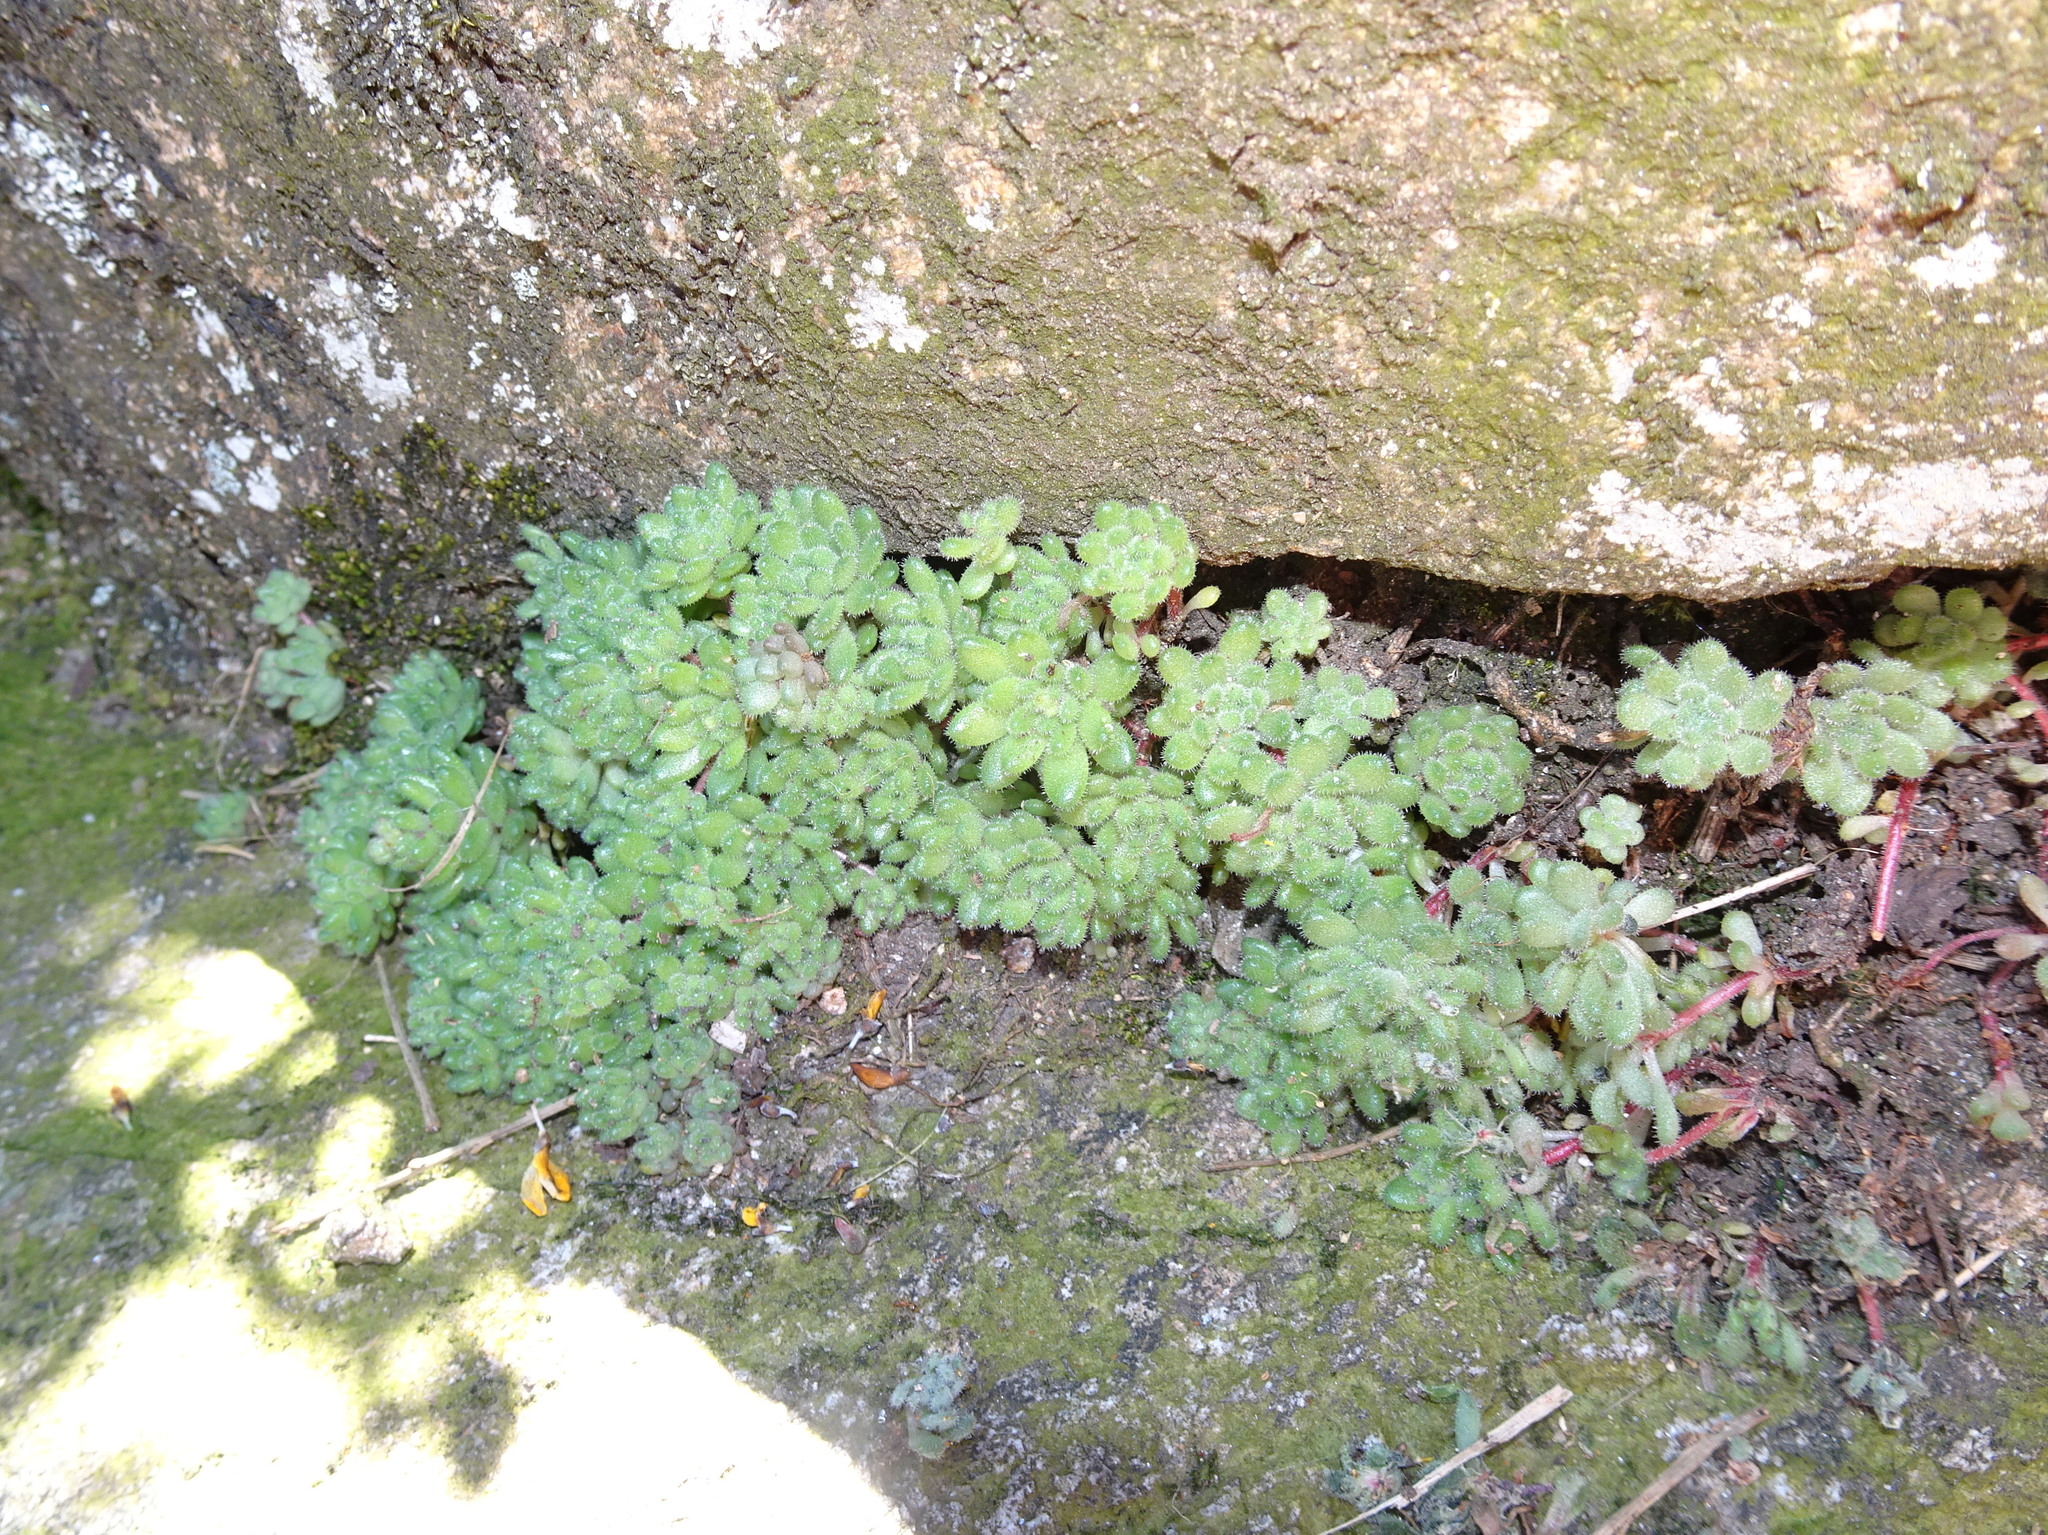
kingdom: Plantae
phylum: Tracheophyta
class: Magnoliopsida
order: Saxifragales
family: Crassulaceae
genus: Sedum
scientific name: Sedum hirsutum
